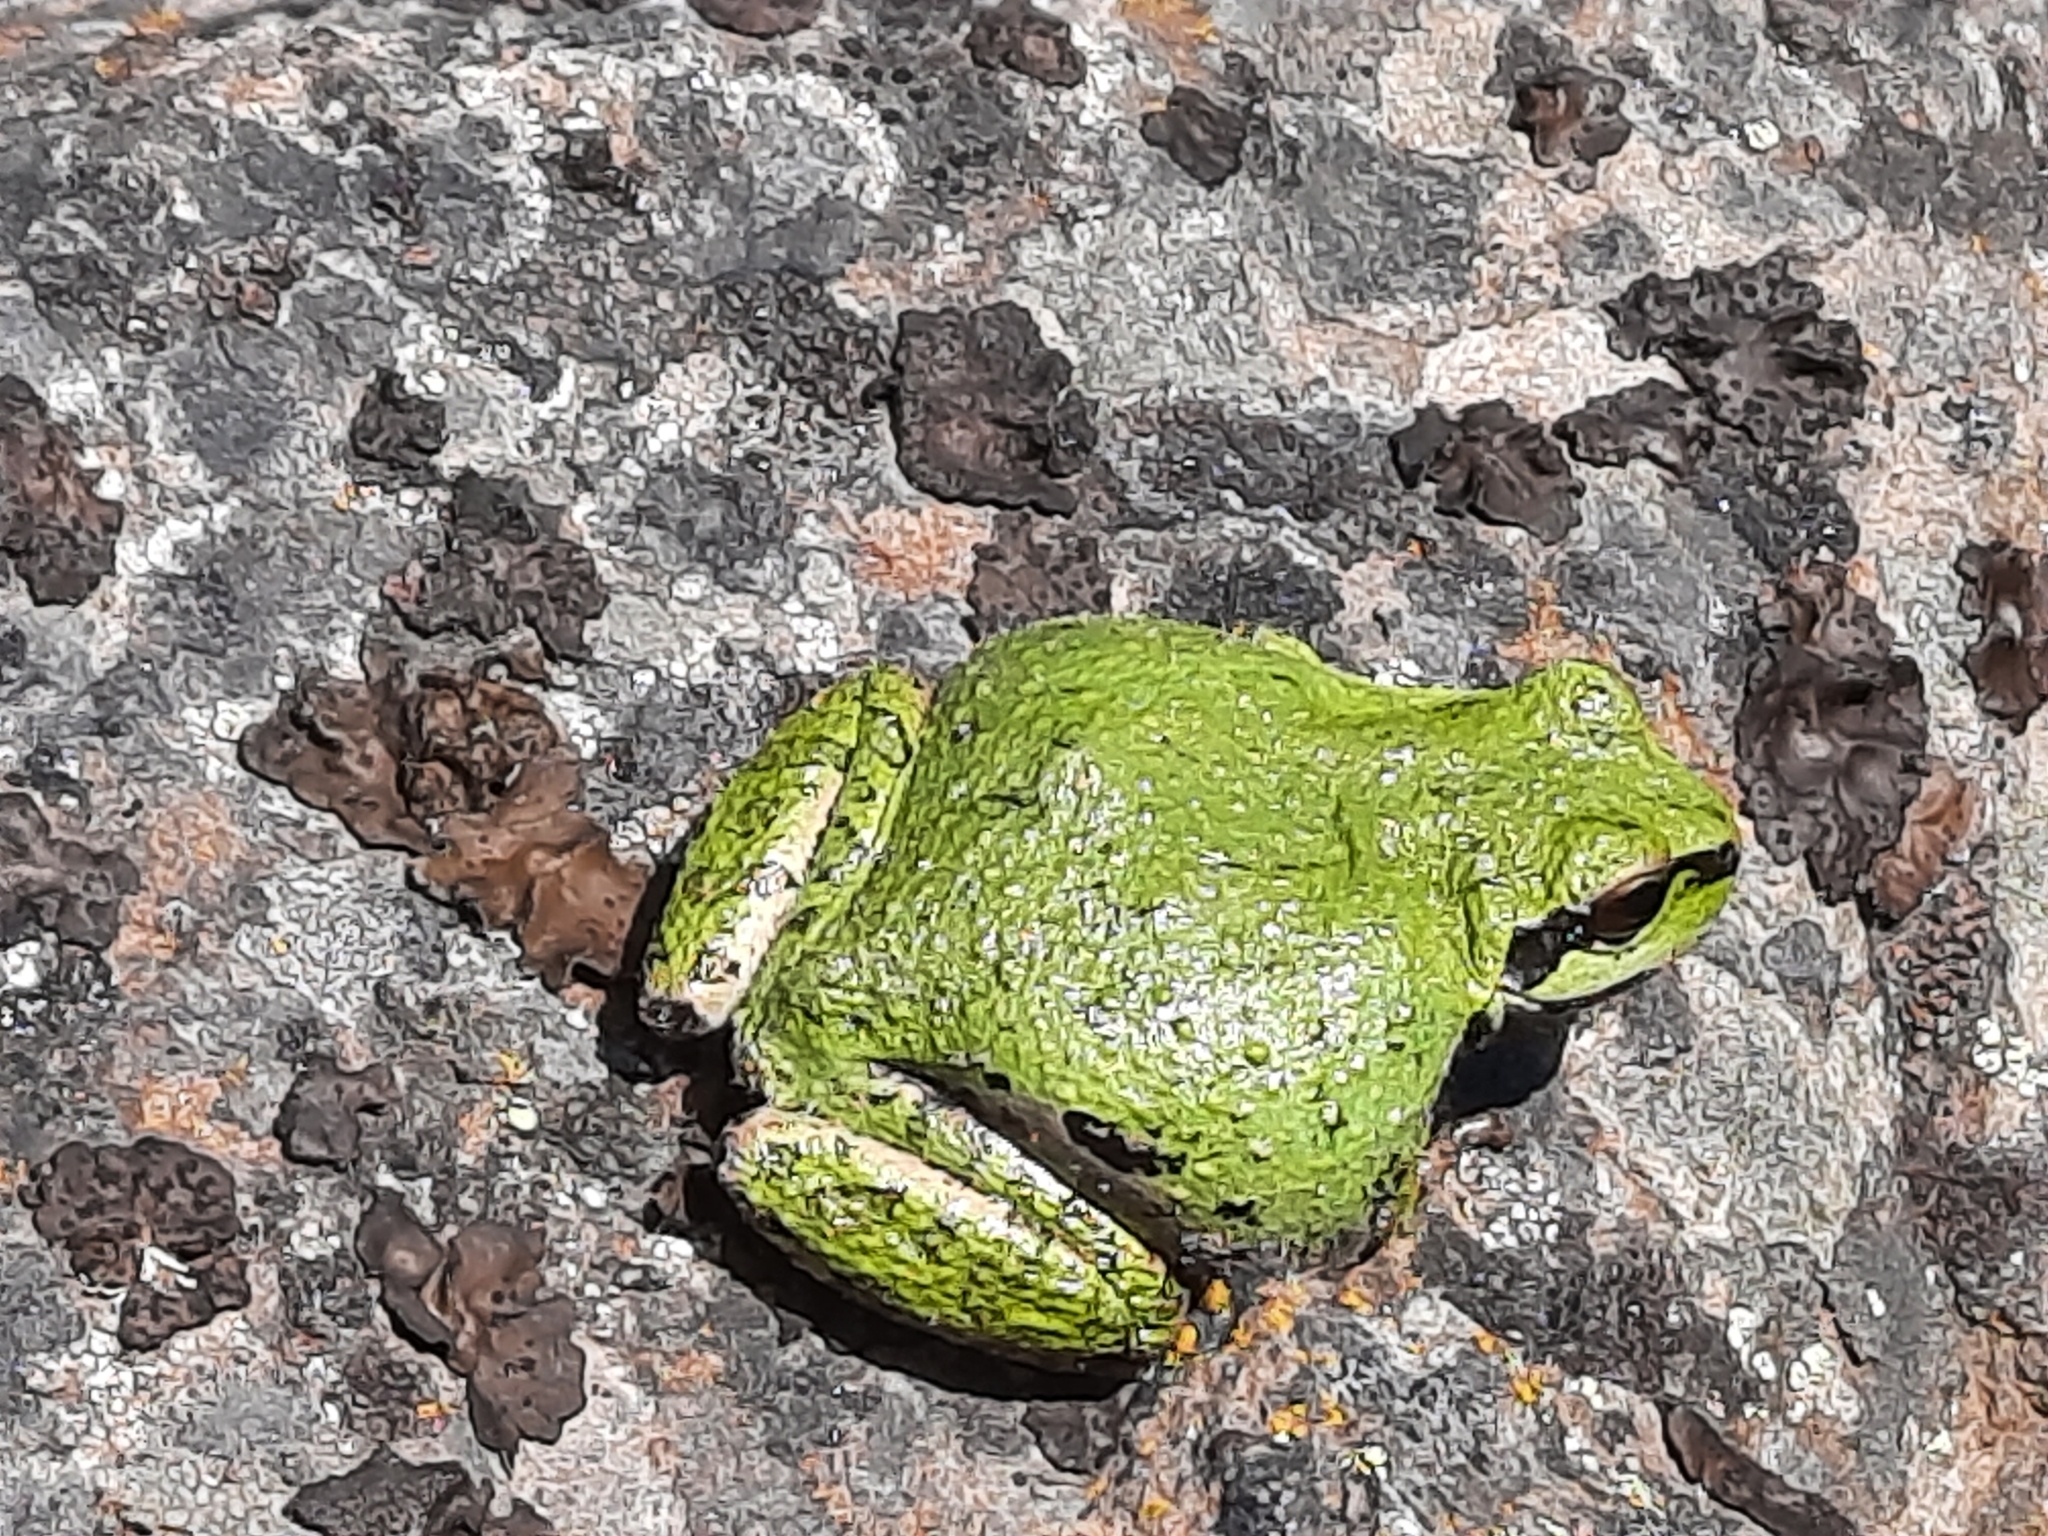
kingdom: Animalia
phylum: Chordata
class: Amphibia
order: Anura
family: Hylidae
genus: Pseudacris
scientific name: Pseudacris regilla
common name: Pacific chorus frog
